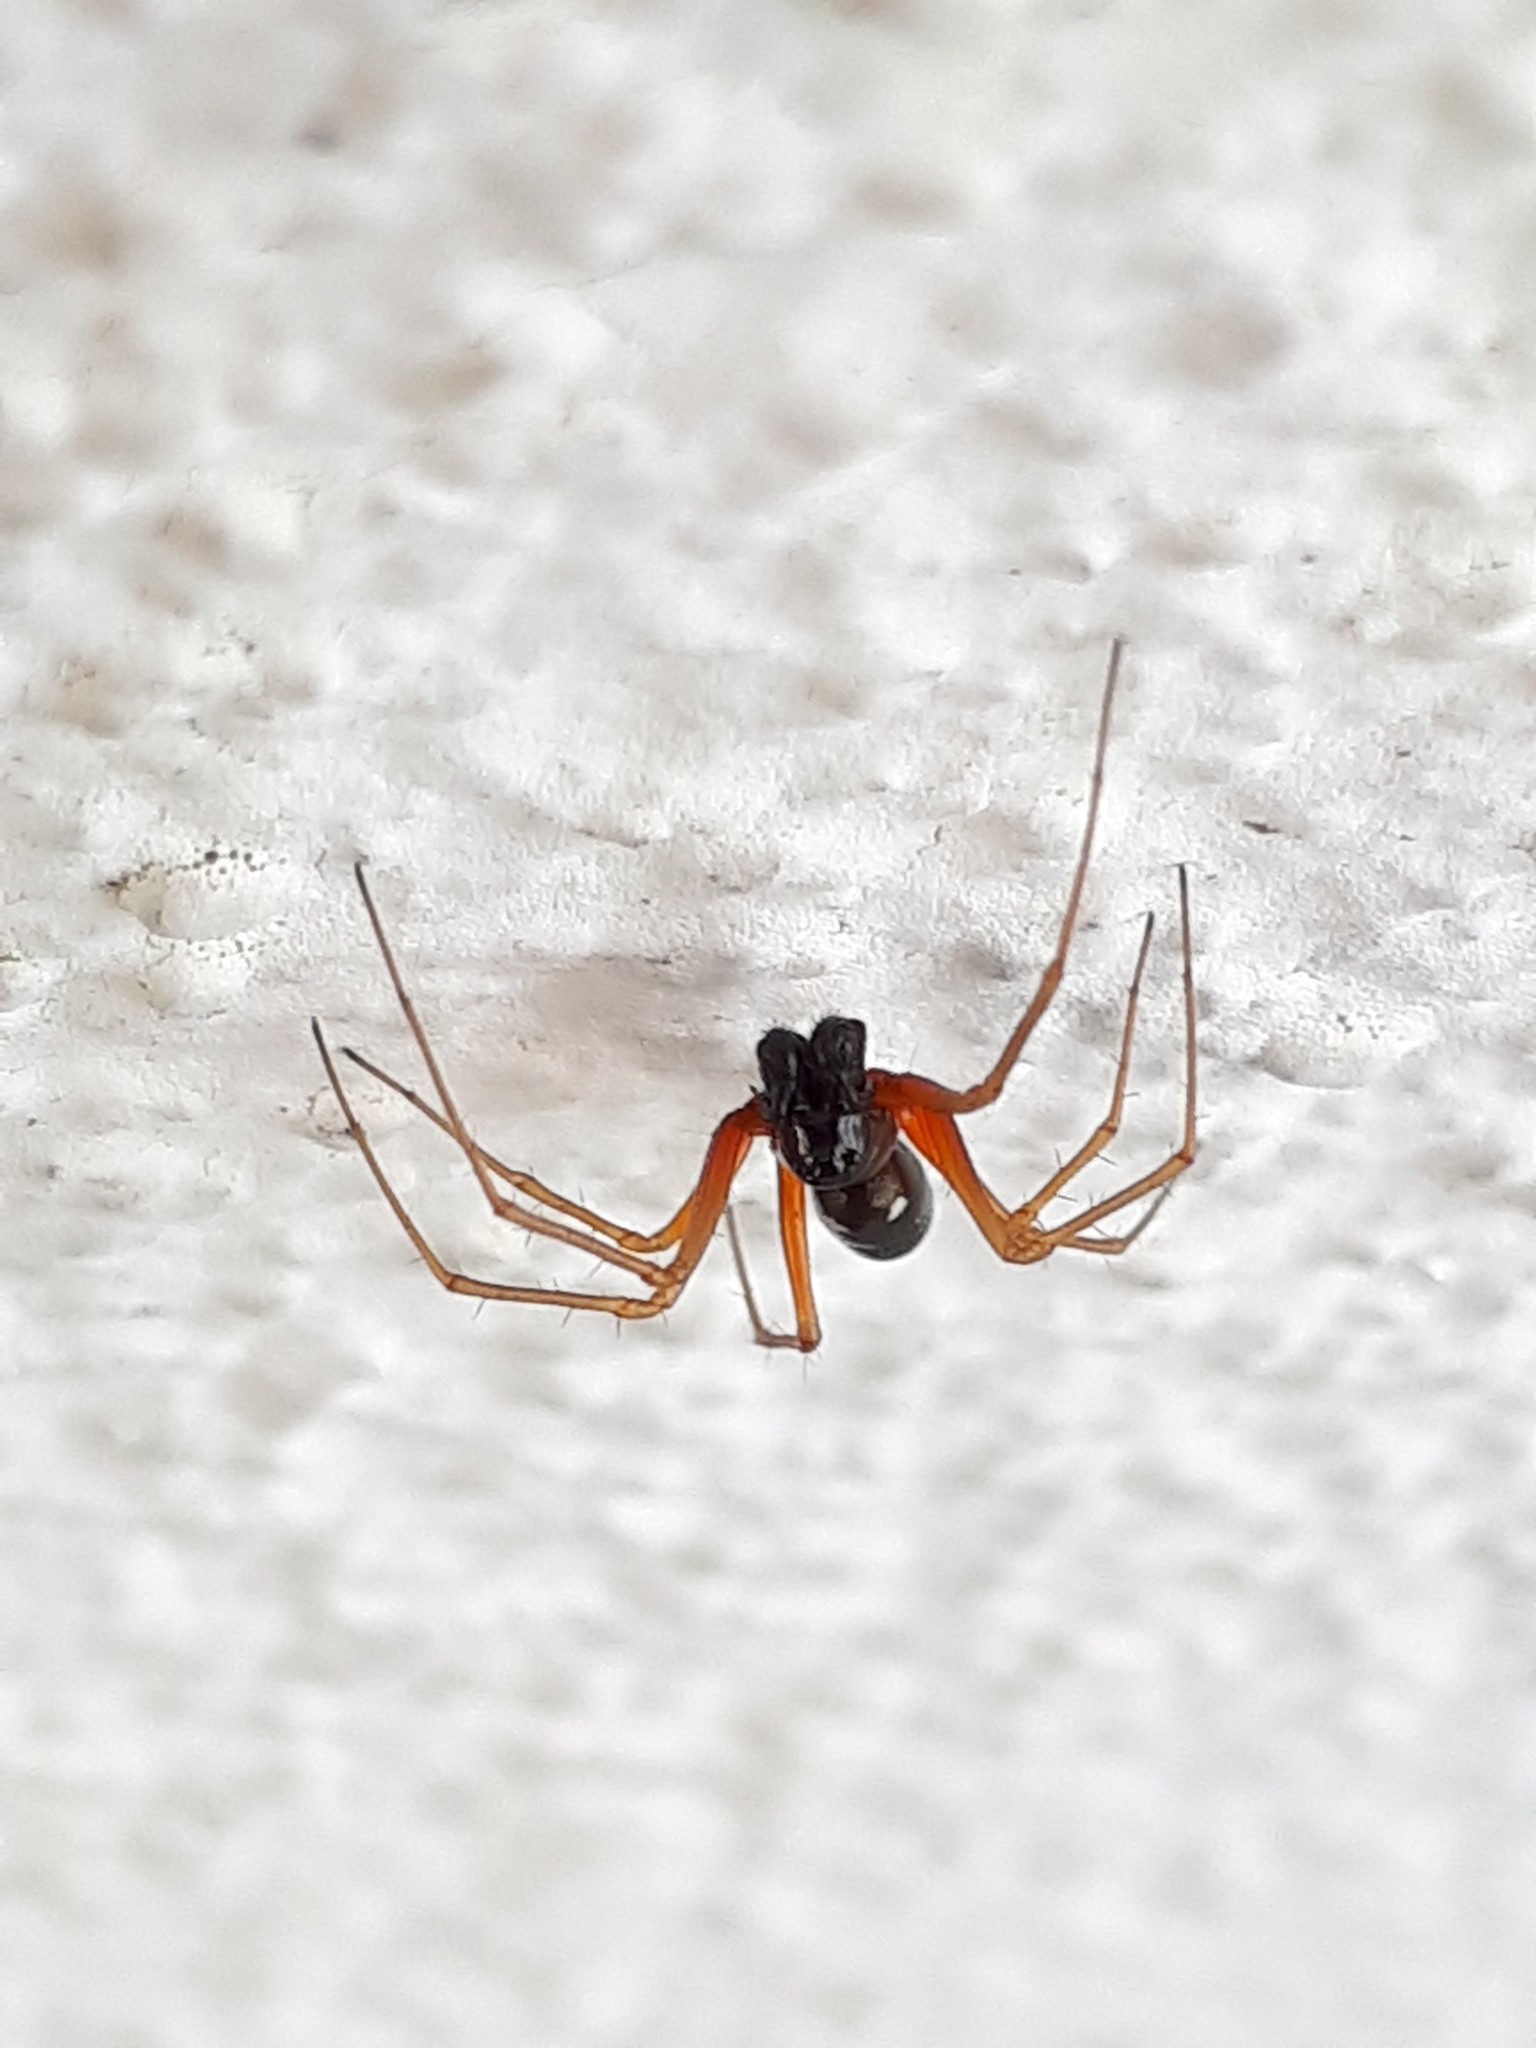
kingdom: Animalia
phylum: Arthropoda
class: Arachnida
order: Araneae
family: Linyphiidae
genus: Linyphia
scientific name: Linyphia hortensis
